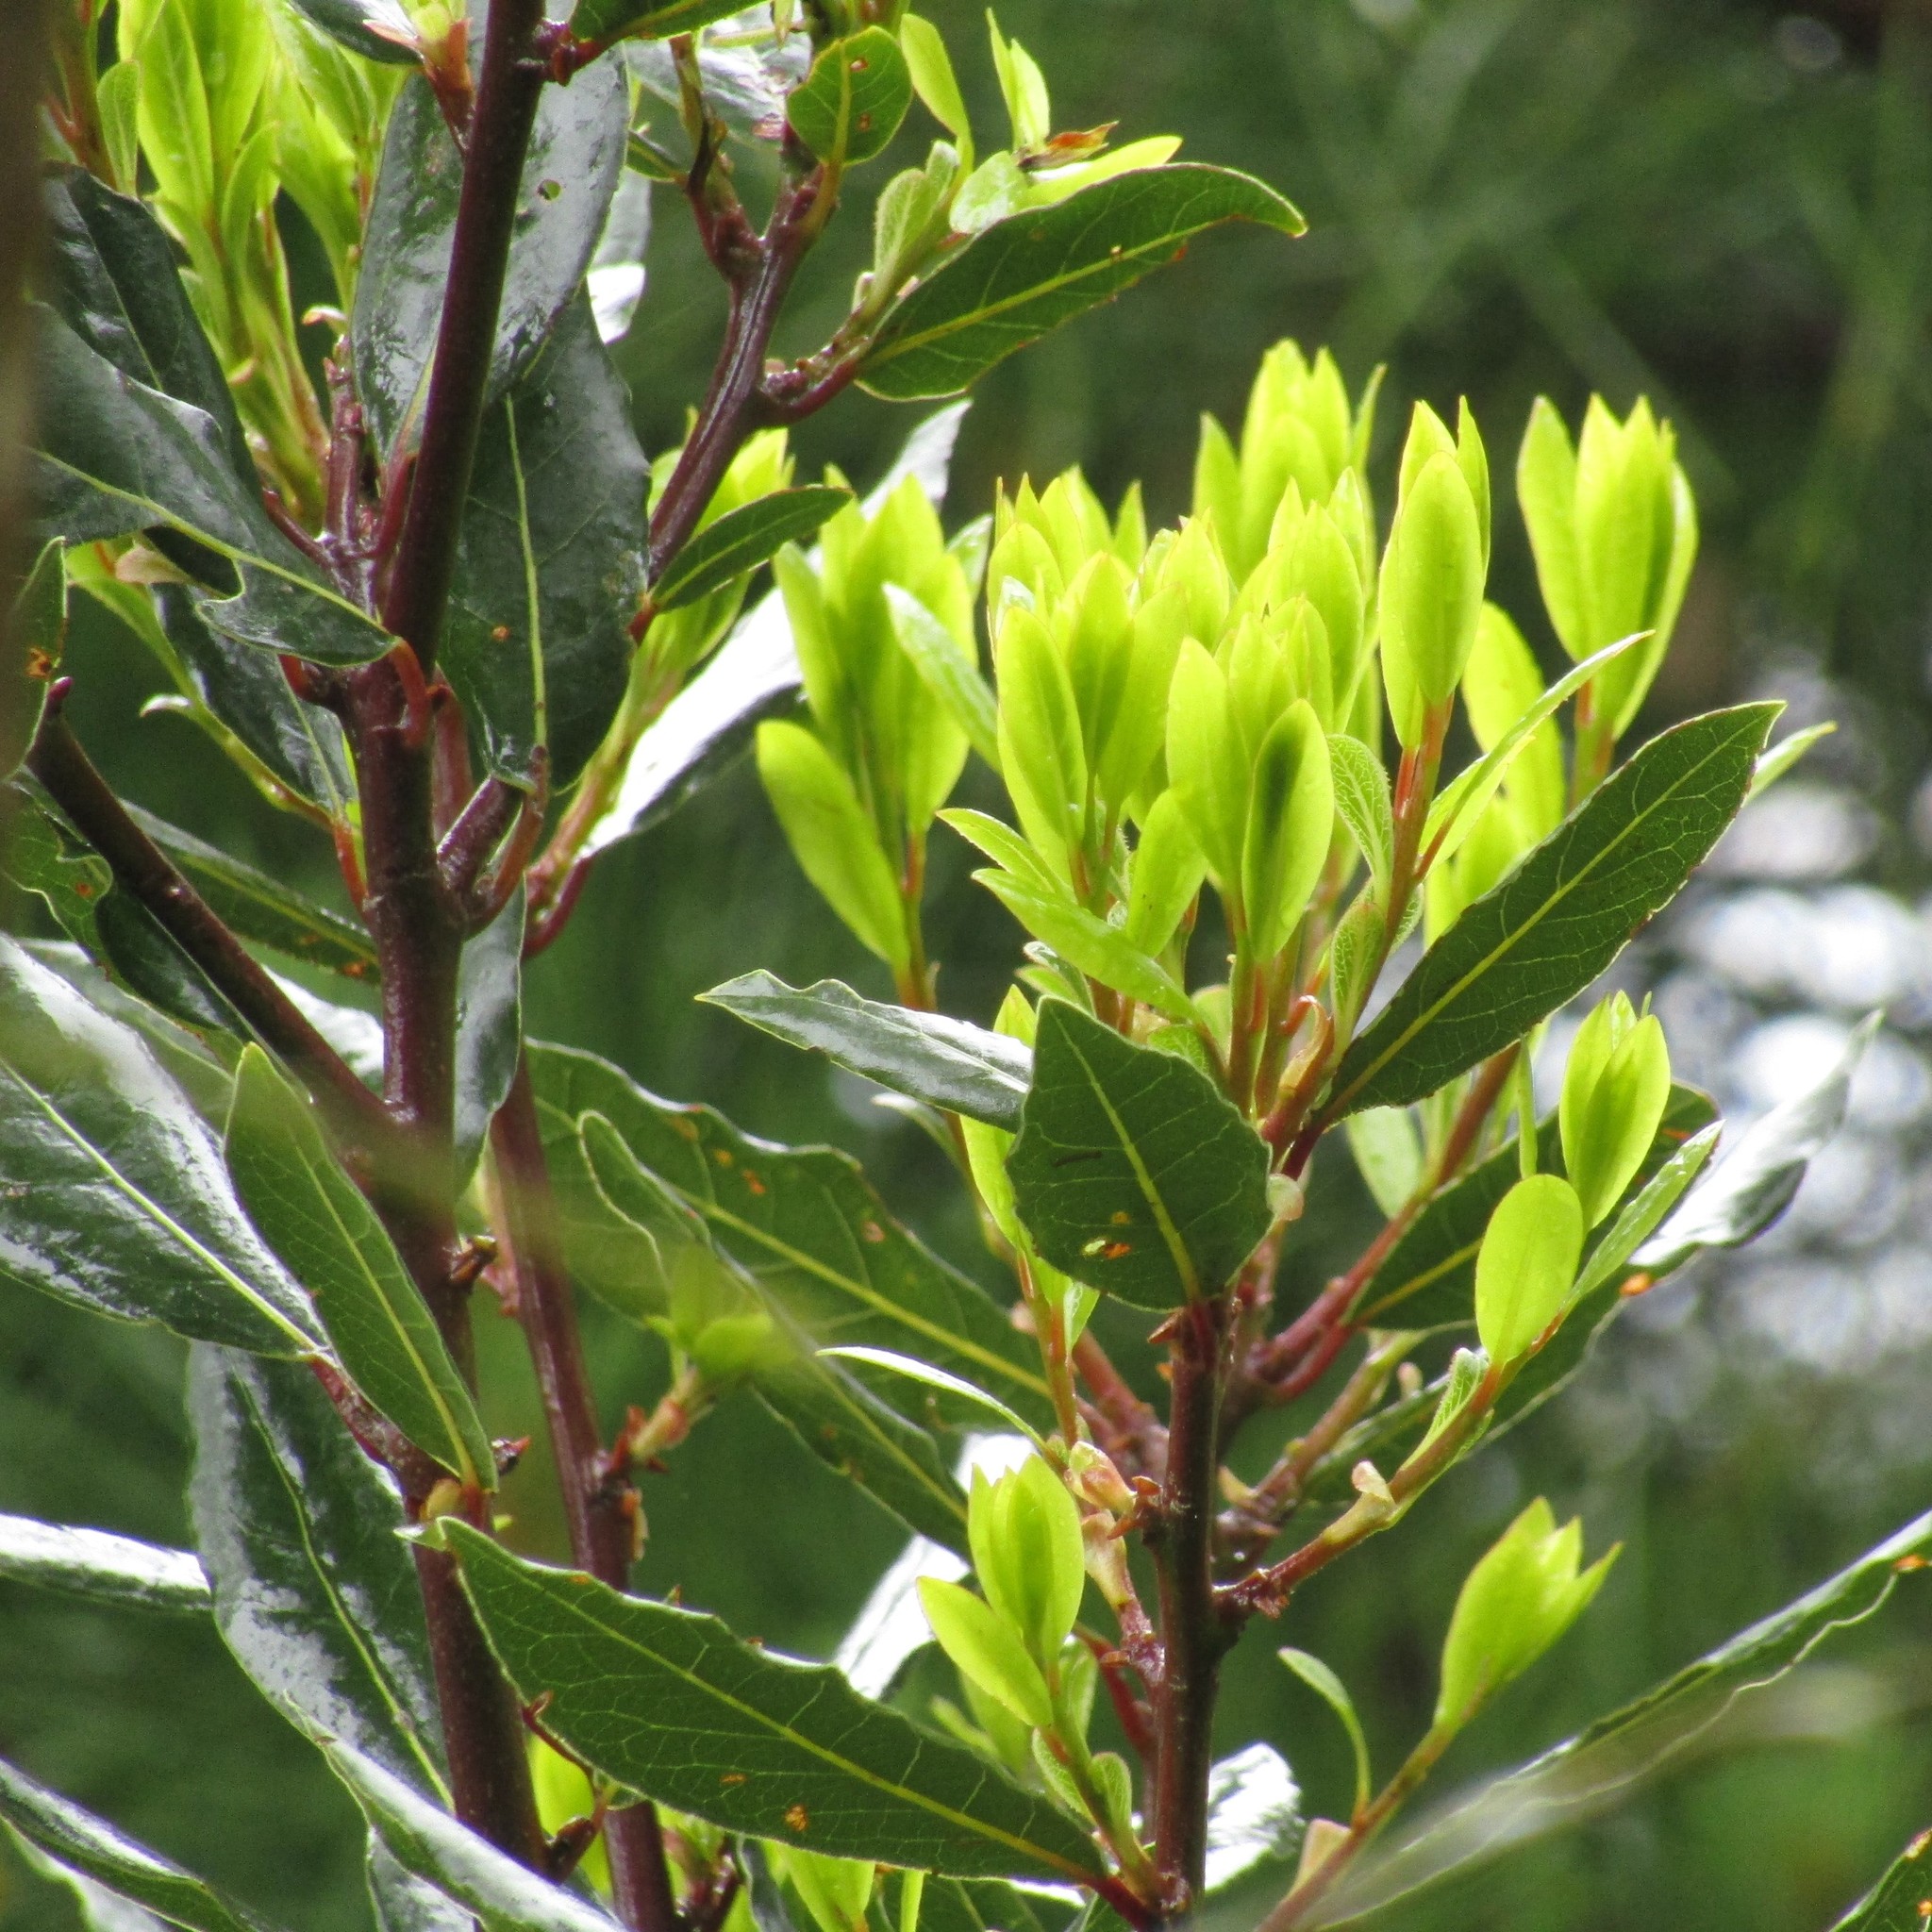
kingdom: Plantae
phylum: Tracheophyta
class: Magnoliopsida
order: Laurales
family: Lauraceae
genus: Laurus
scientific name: Laurus nobilis
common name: Bay
